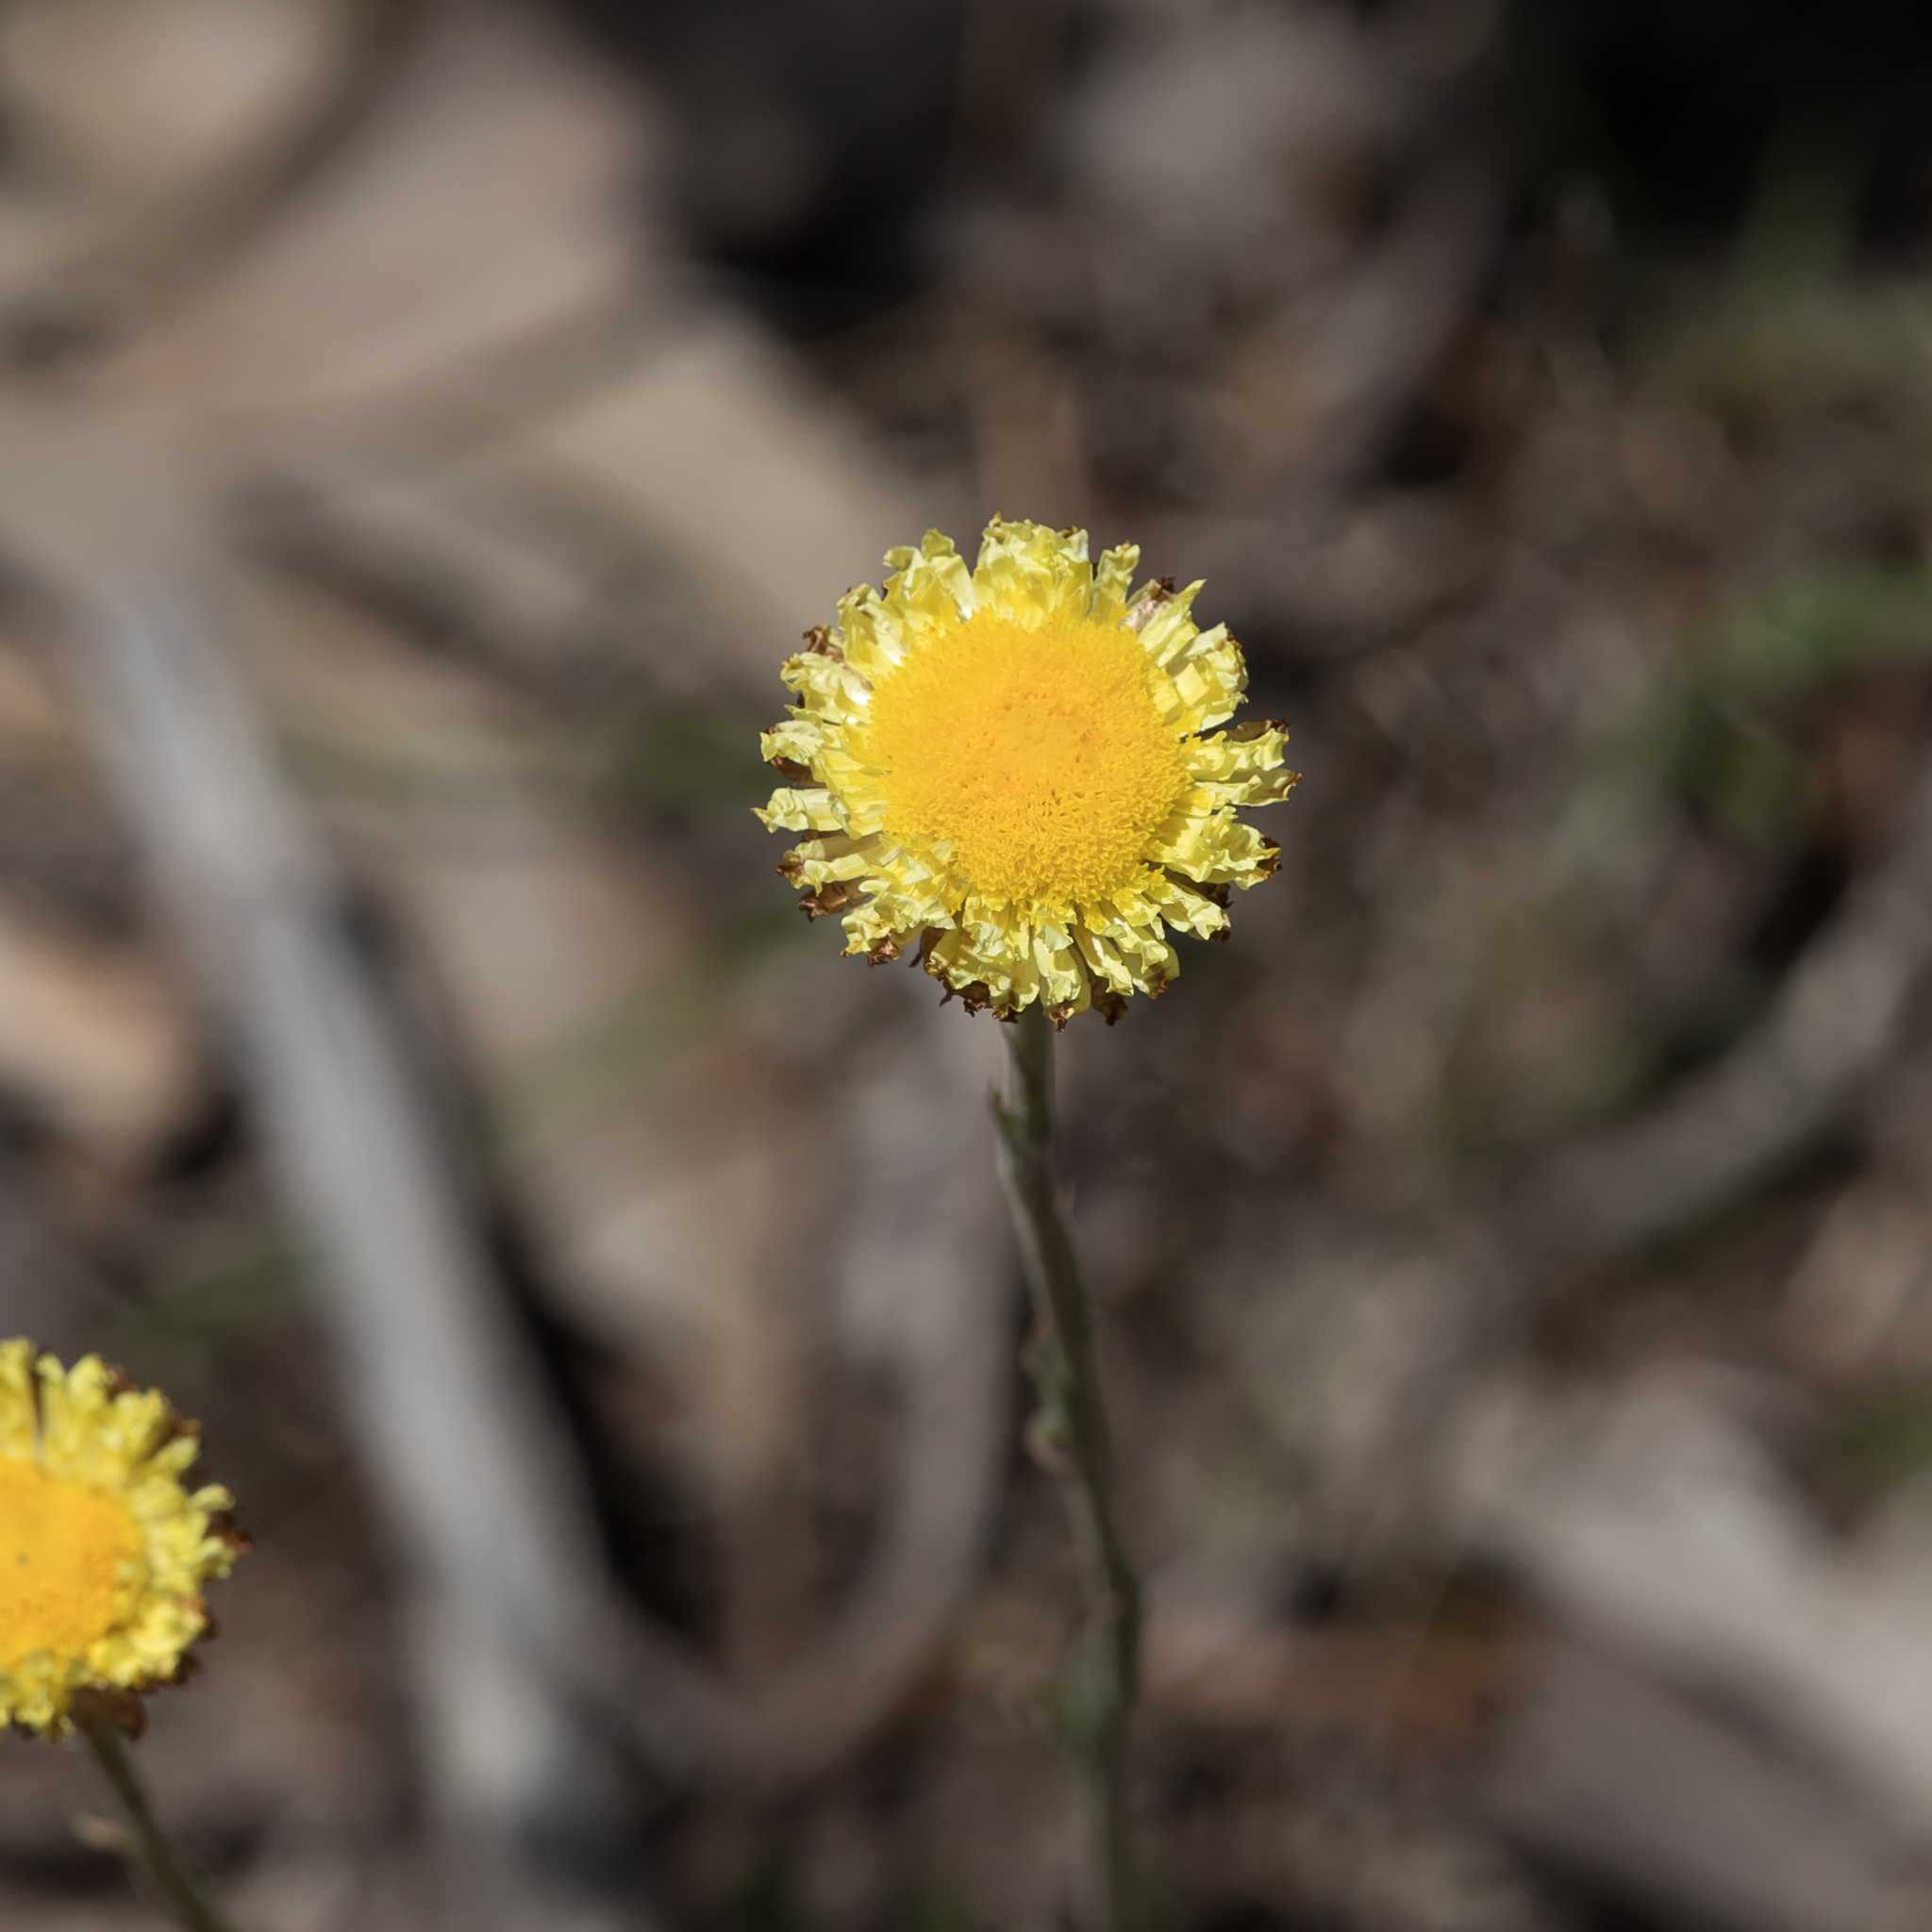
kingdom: Plantae
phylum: Tracheophyta
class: Magnoliopsida
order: Asterales
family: Asteraceae
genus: Coronidium
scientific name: Coronidium scorpioides
